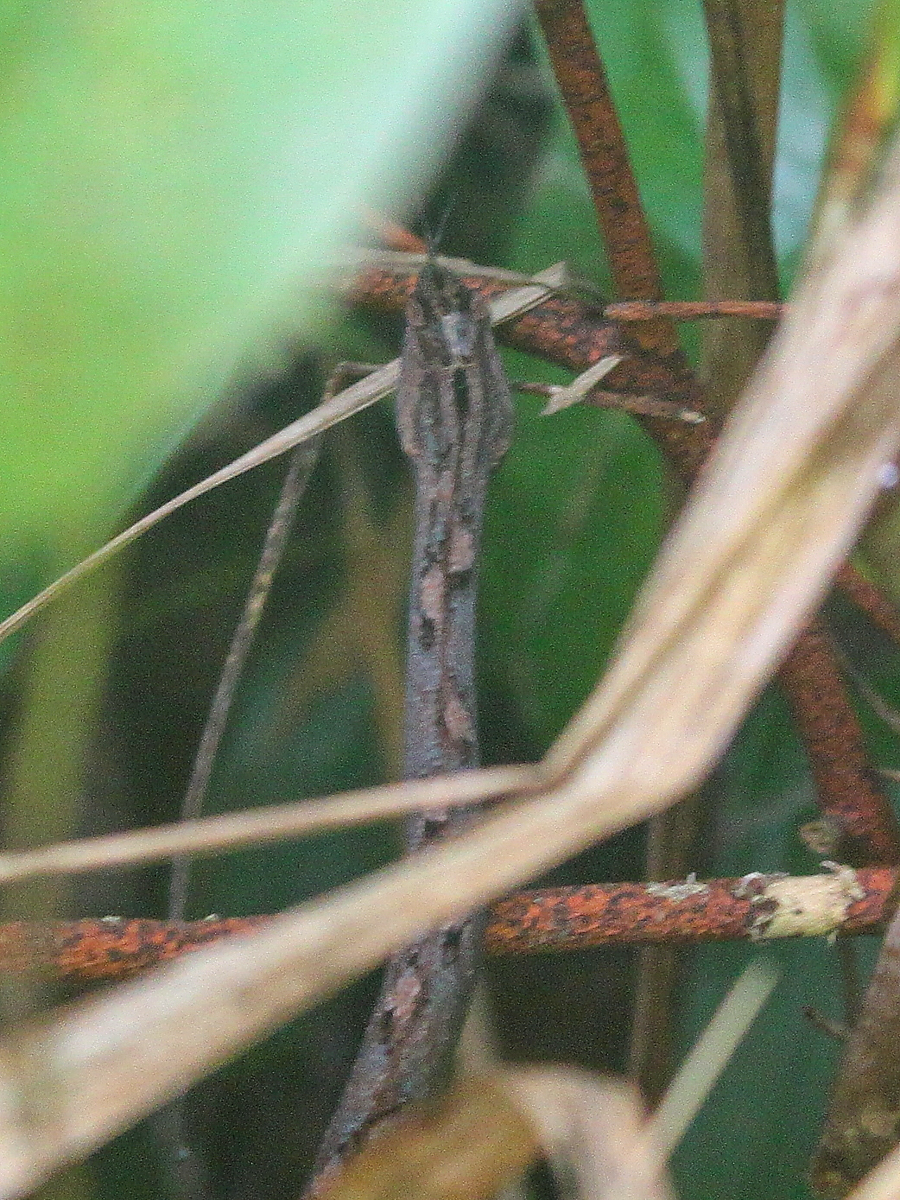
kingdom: Animalia
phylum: Chordata
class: Squamata
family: Pseudaspididae
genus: Psammodynastes
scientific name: Psammodynastes pulverulentus
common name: Common mock viper
